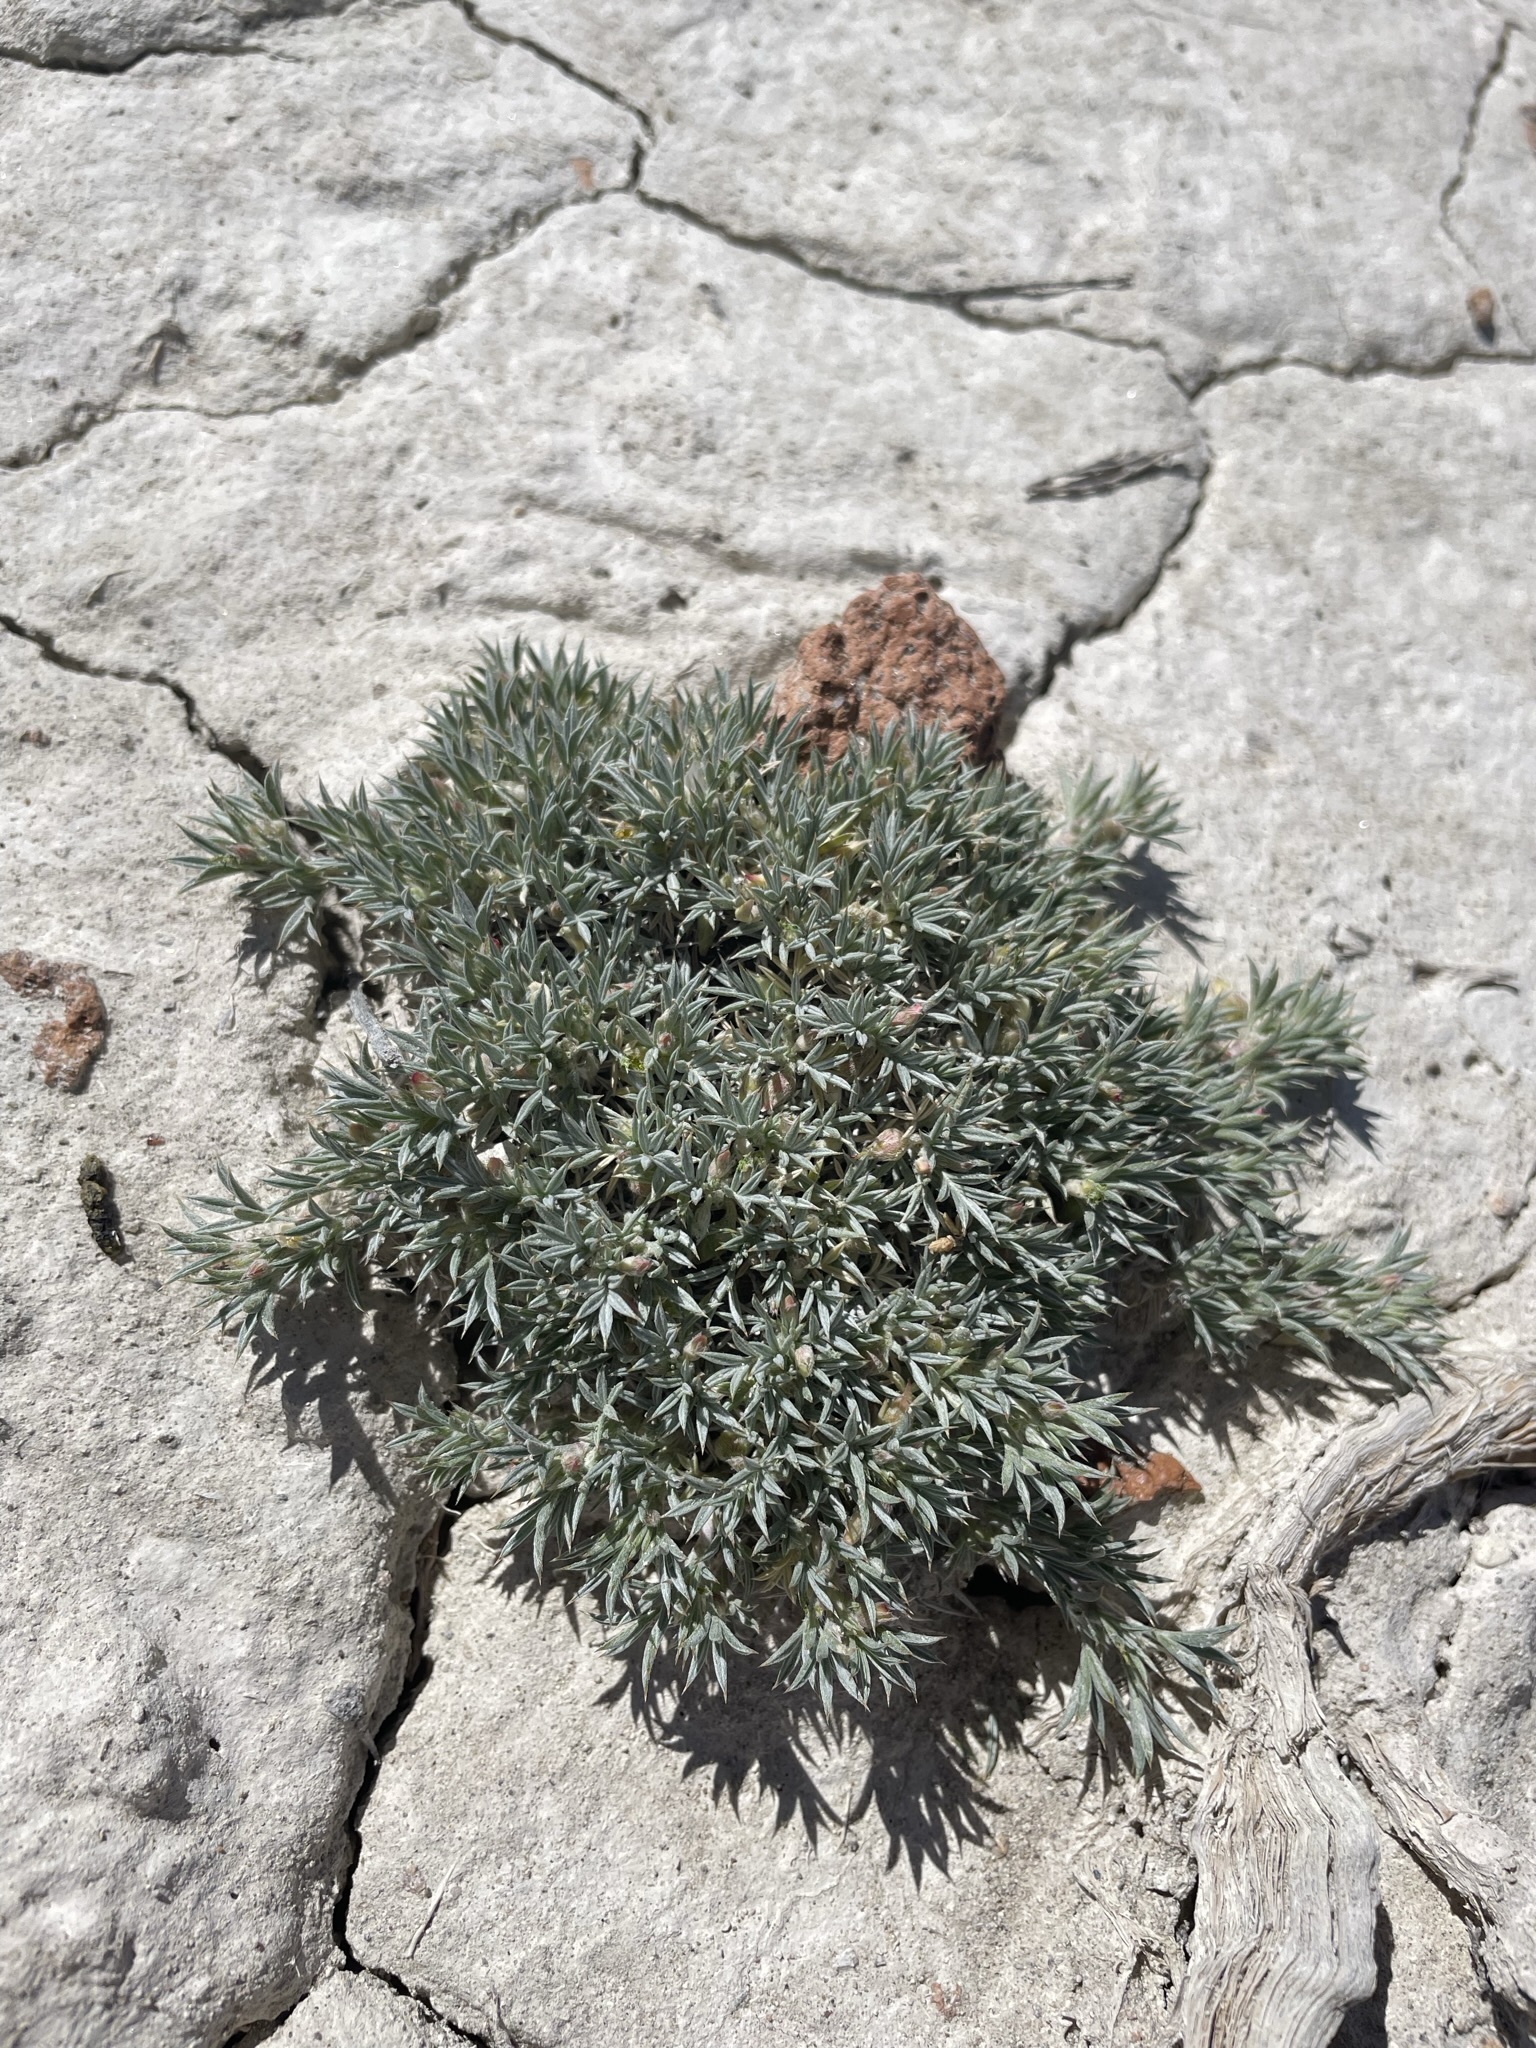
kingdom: Plantae
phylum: Tracheophyta
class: Magnoliopsida
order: Fabales
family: Fabaceae
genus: Astragalus
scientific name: Astragalus kentrophyta
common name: Prickly milk-vetch
